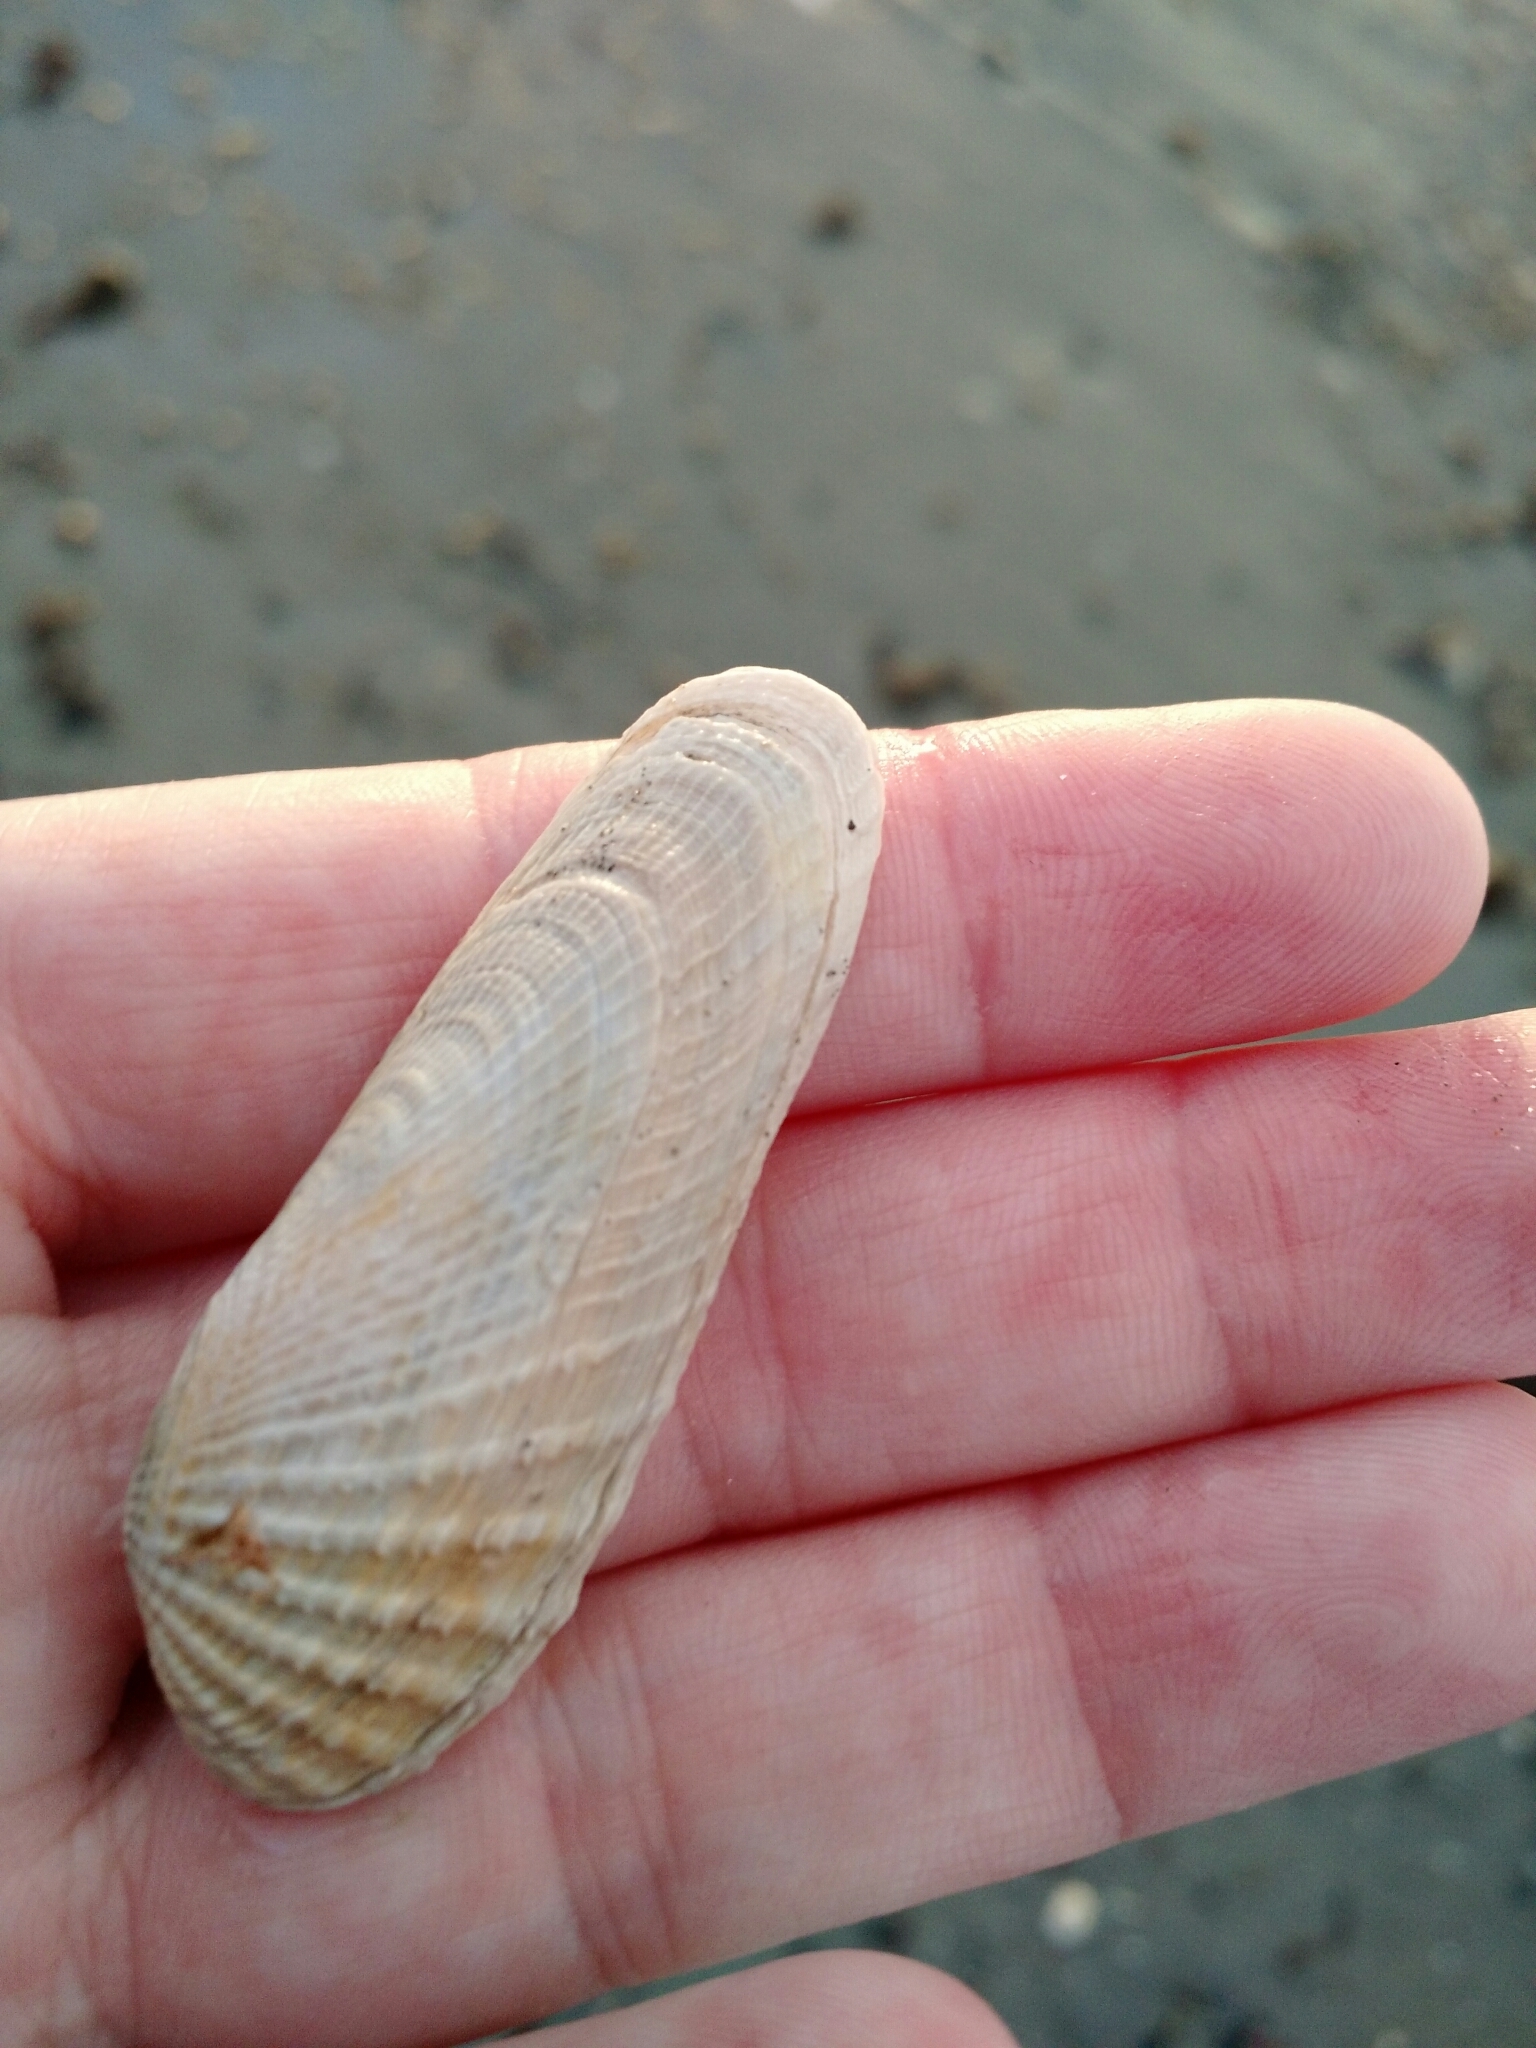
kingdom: Animalia
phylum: Mollusca
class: Bivalvia
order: Venerida
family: Veneridae
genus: Petricolaria
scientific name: Petricolaria pholadiformis
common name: American piddock
